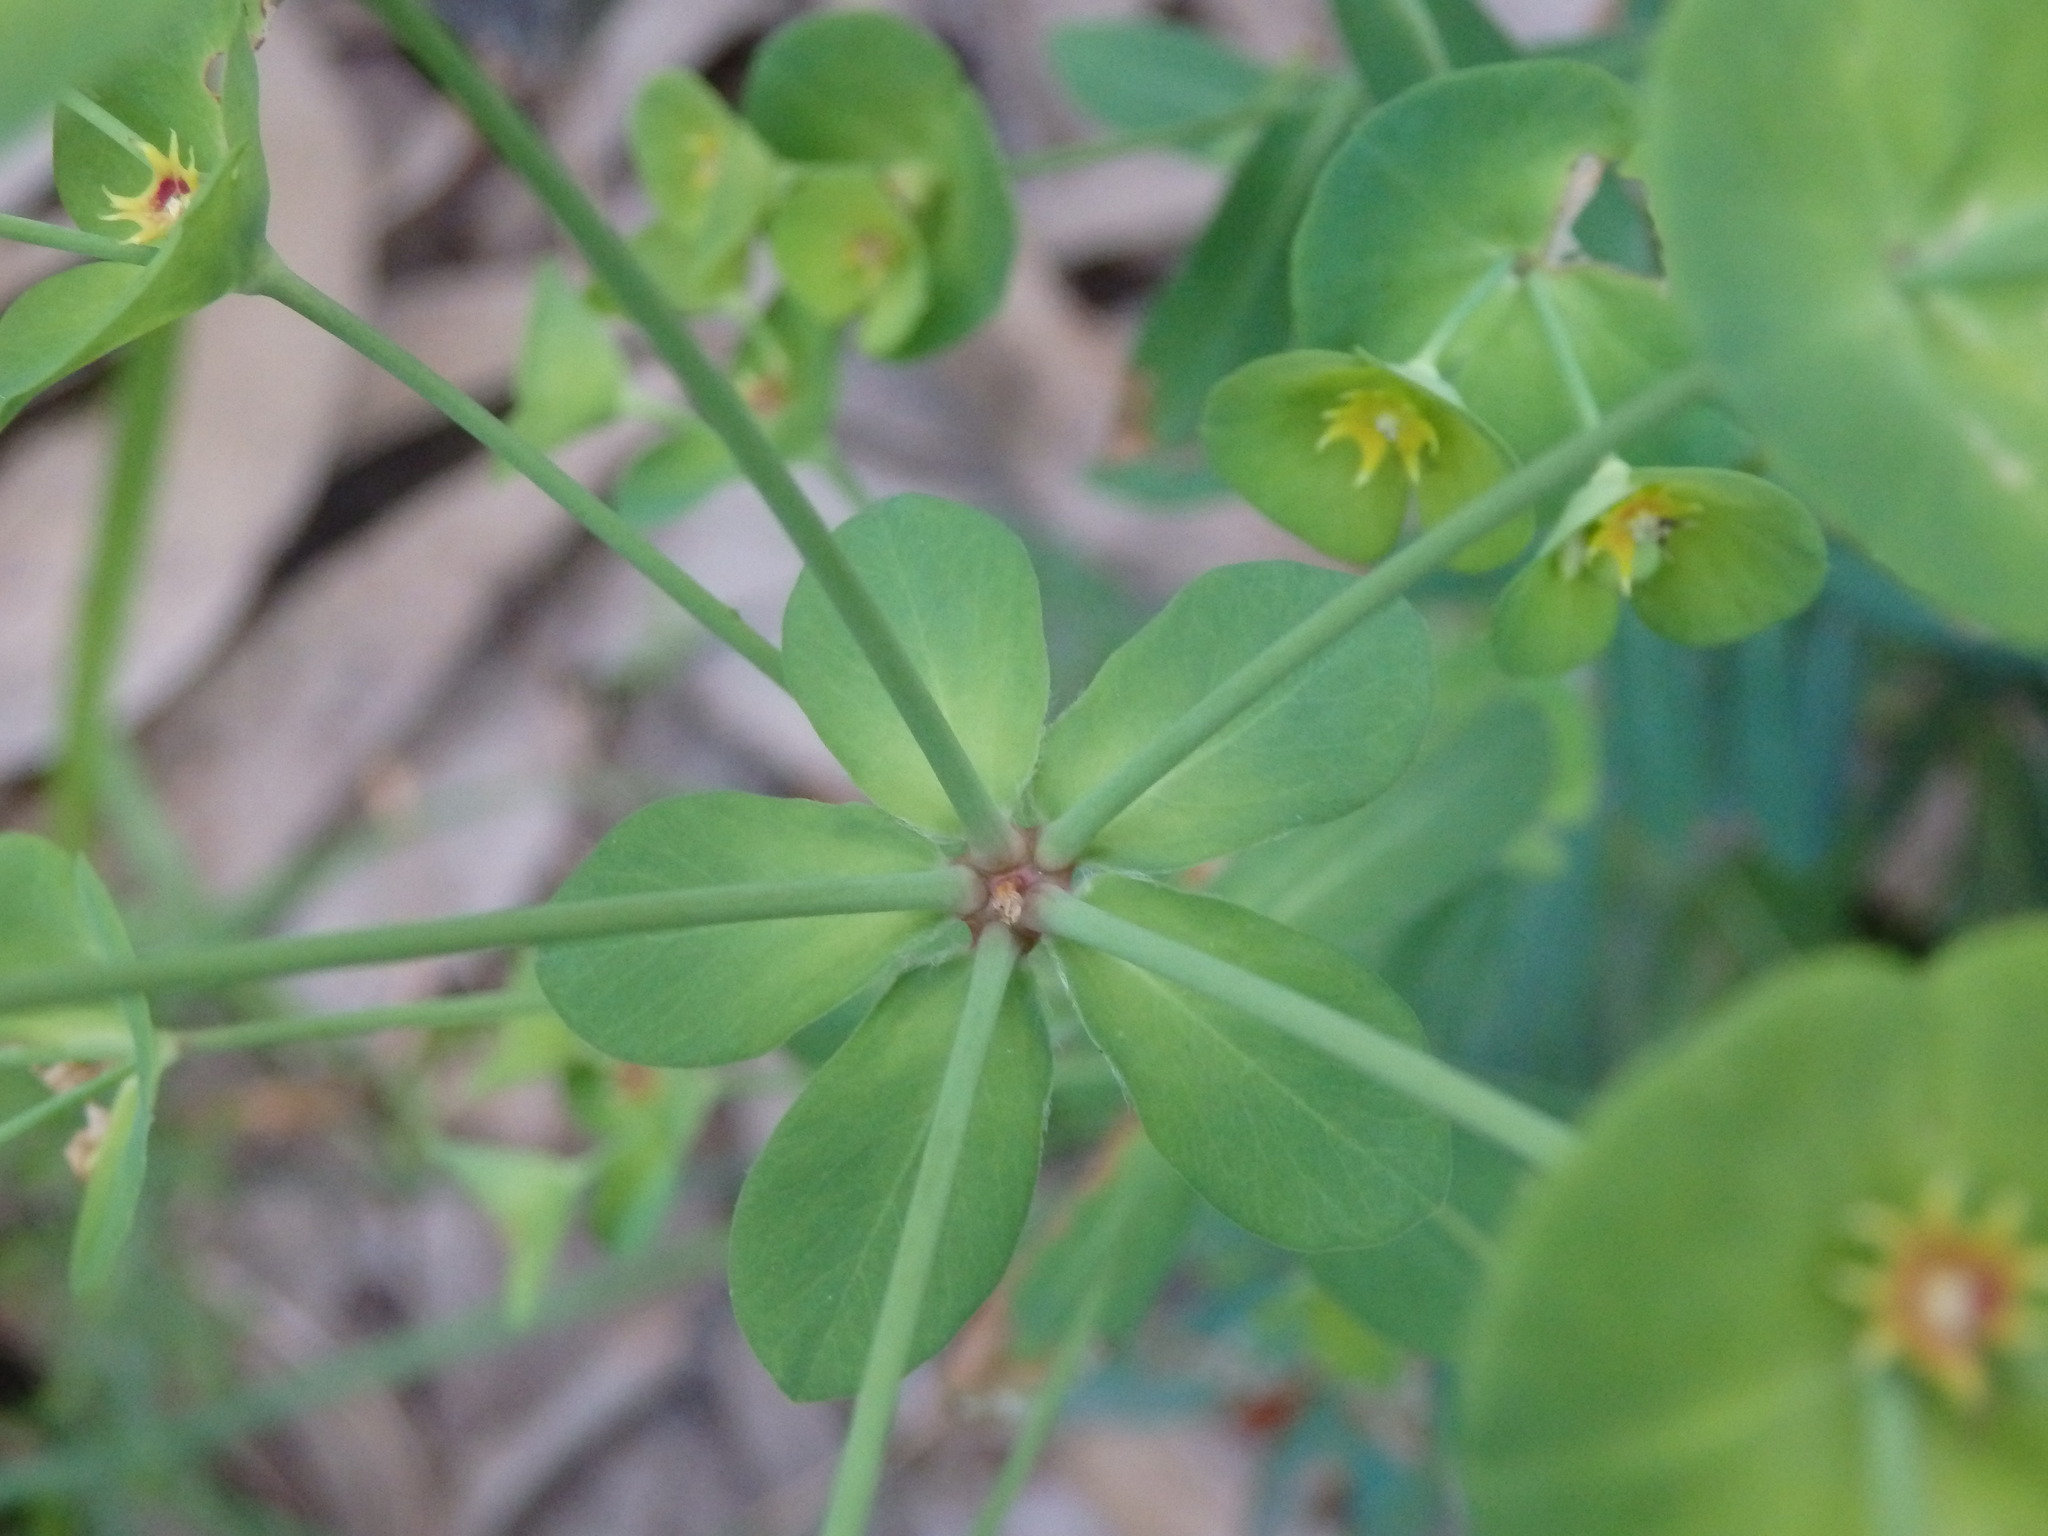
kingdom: Plantae
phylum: Tracheophyta
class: Magnoliopsida
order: Malpighiales
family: Euphorbiaceae
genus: Euphorbia
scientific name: Euphorbia amygdaloides
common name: Wood spurge
